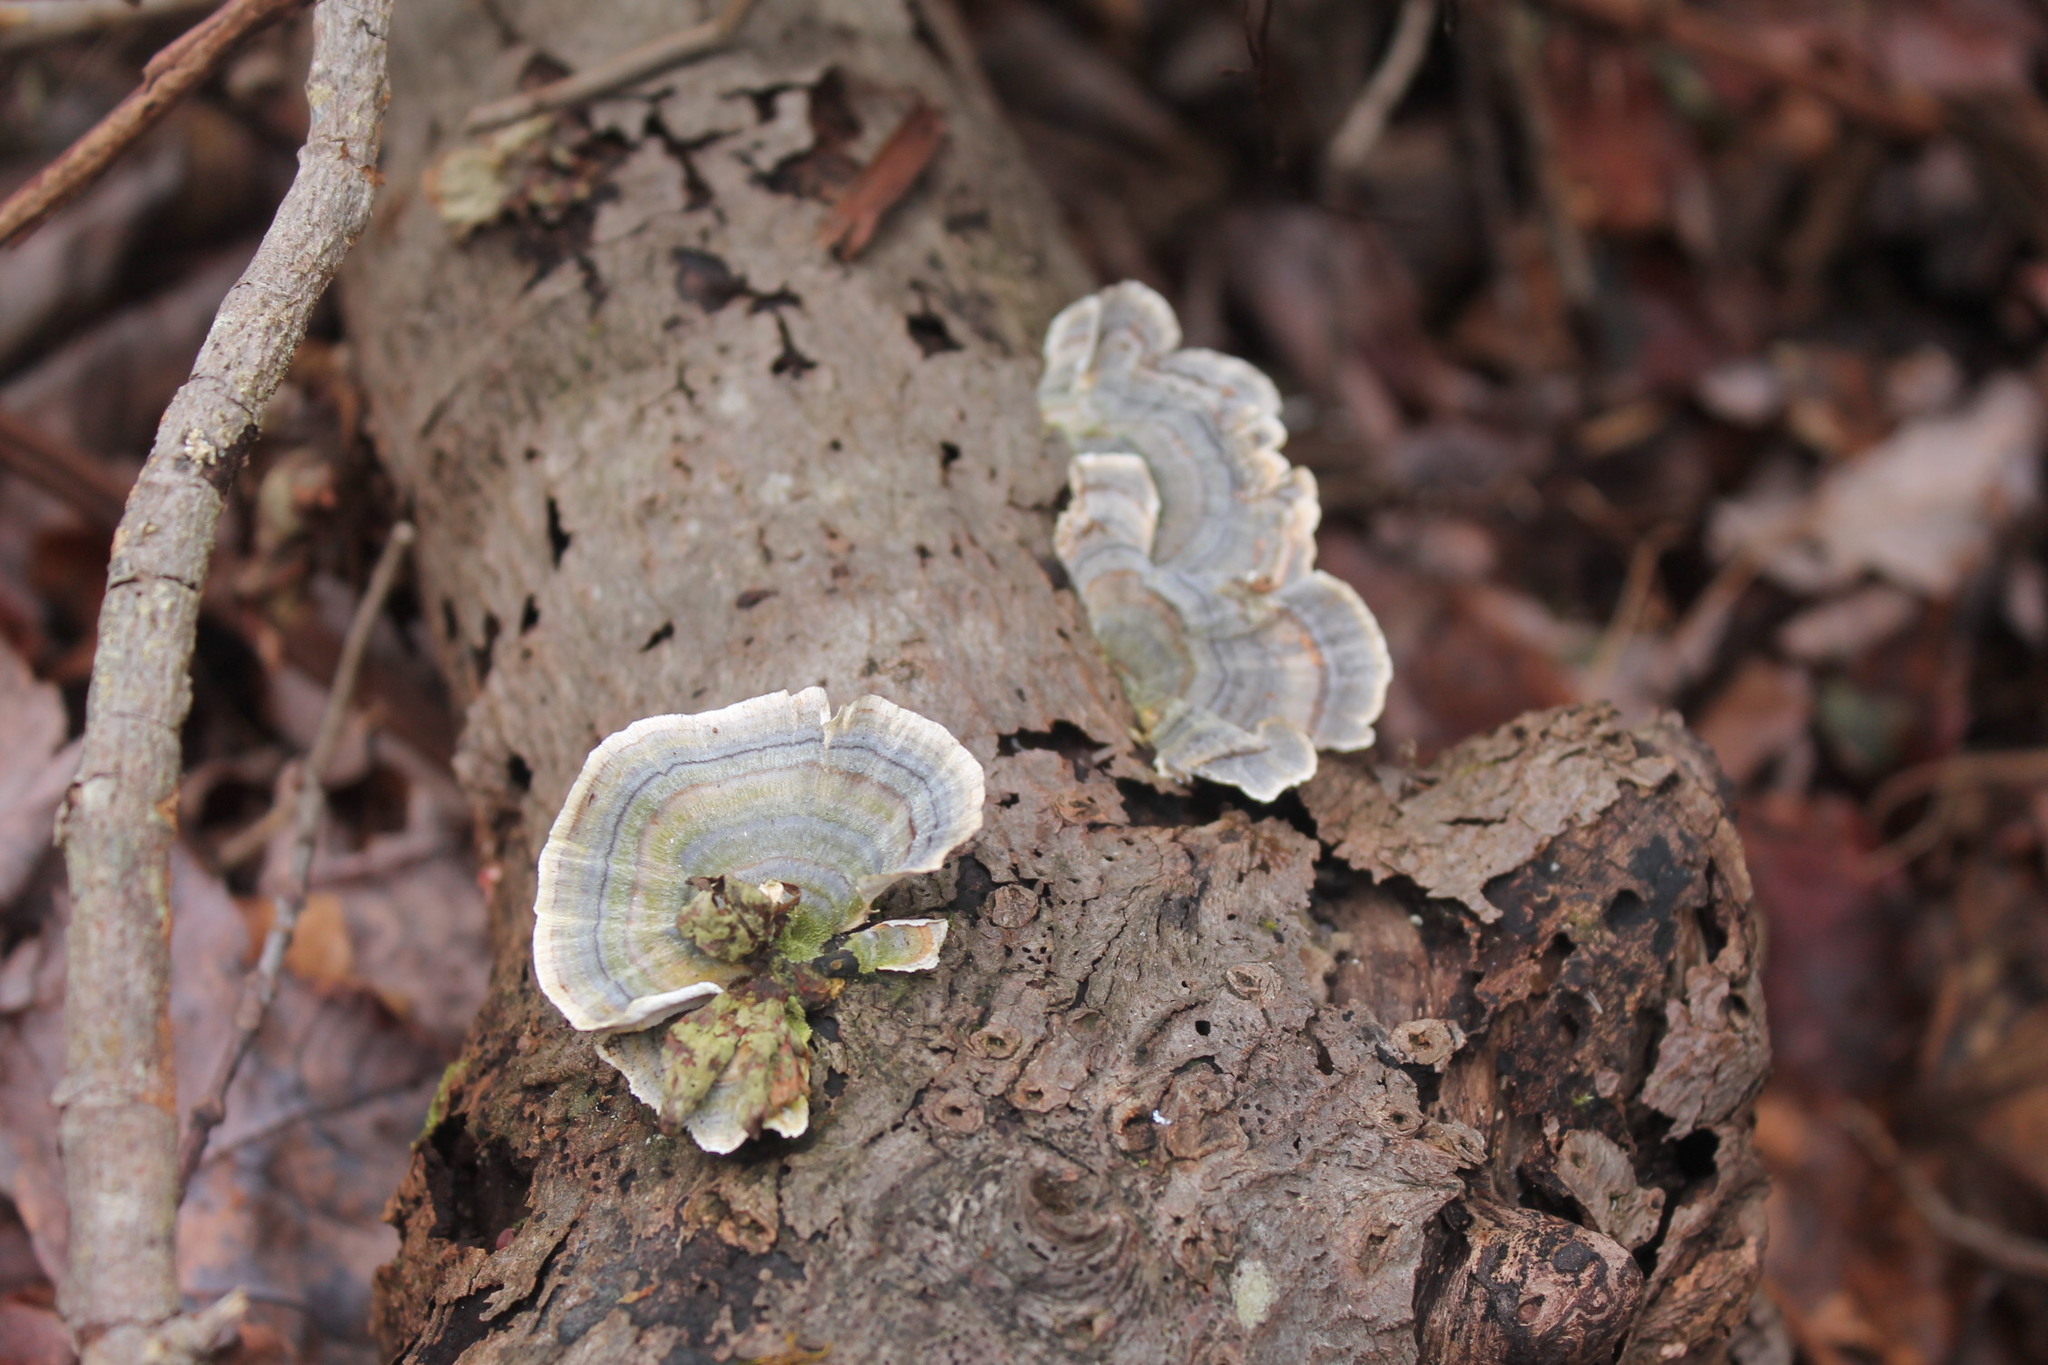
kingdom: Fungi
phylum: Basidiomycota
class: Agaricomycetes
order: Polyporales
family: Polyporaceae
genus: Trametes
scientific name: Trametes versicolor
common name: Turkeytail
